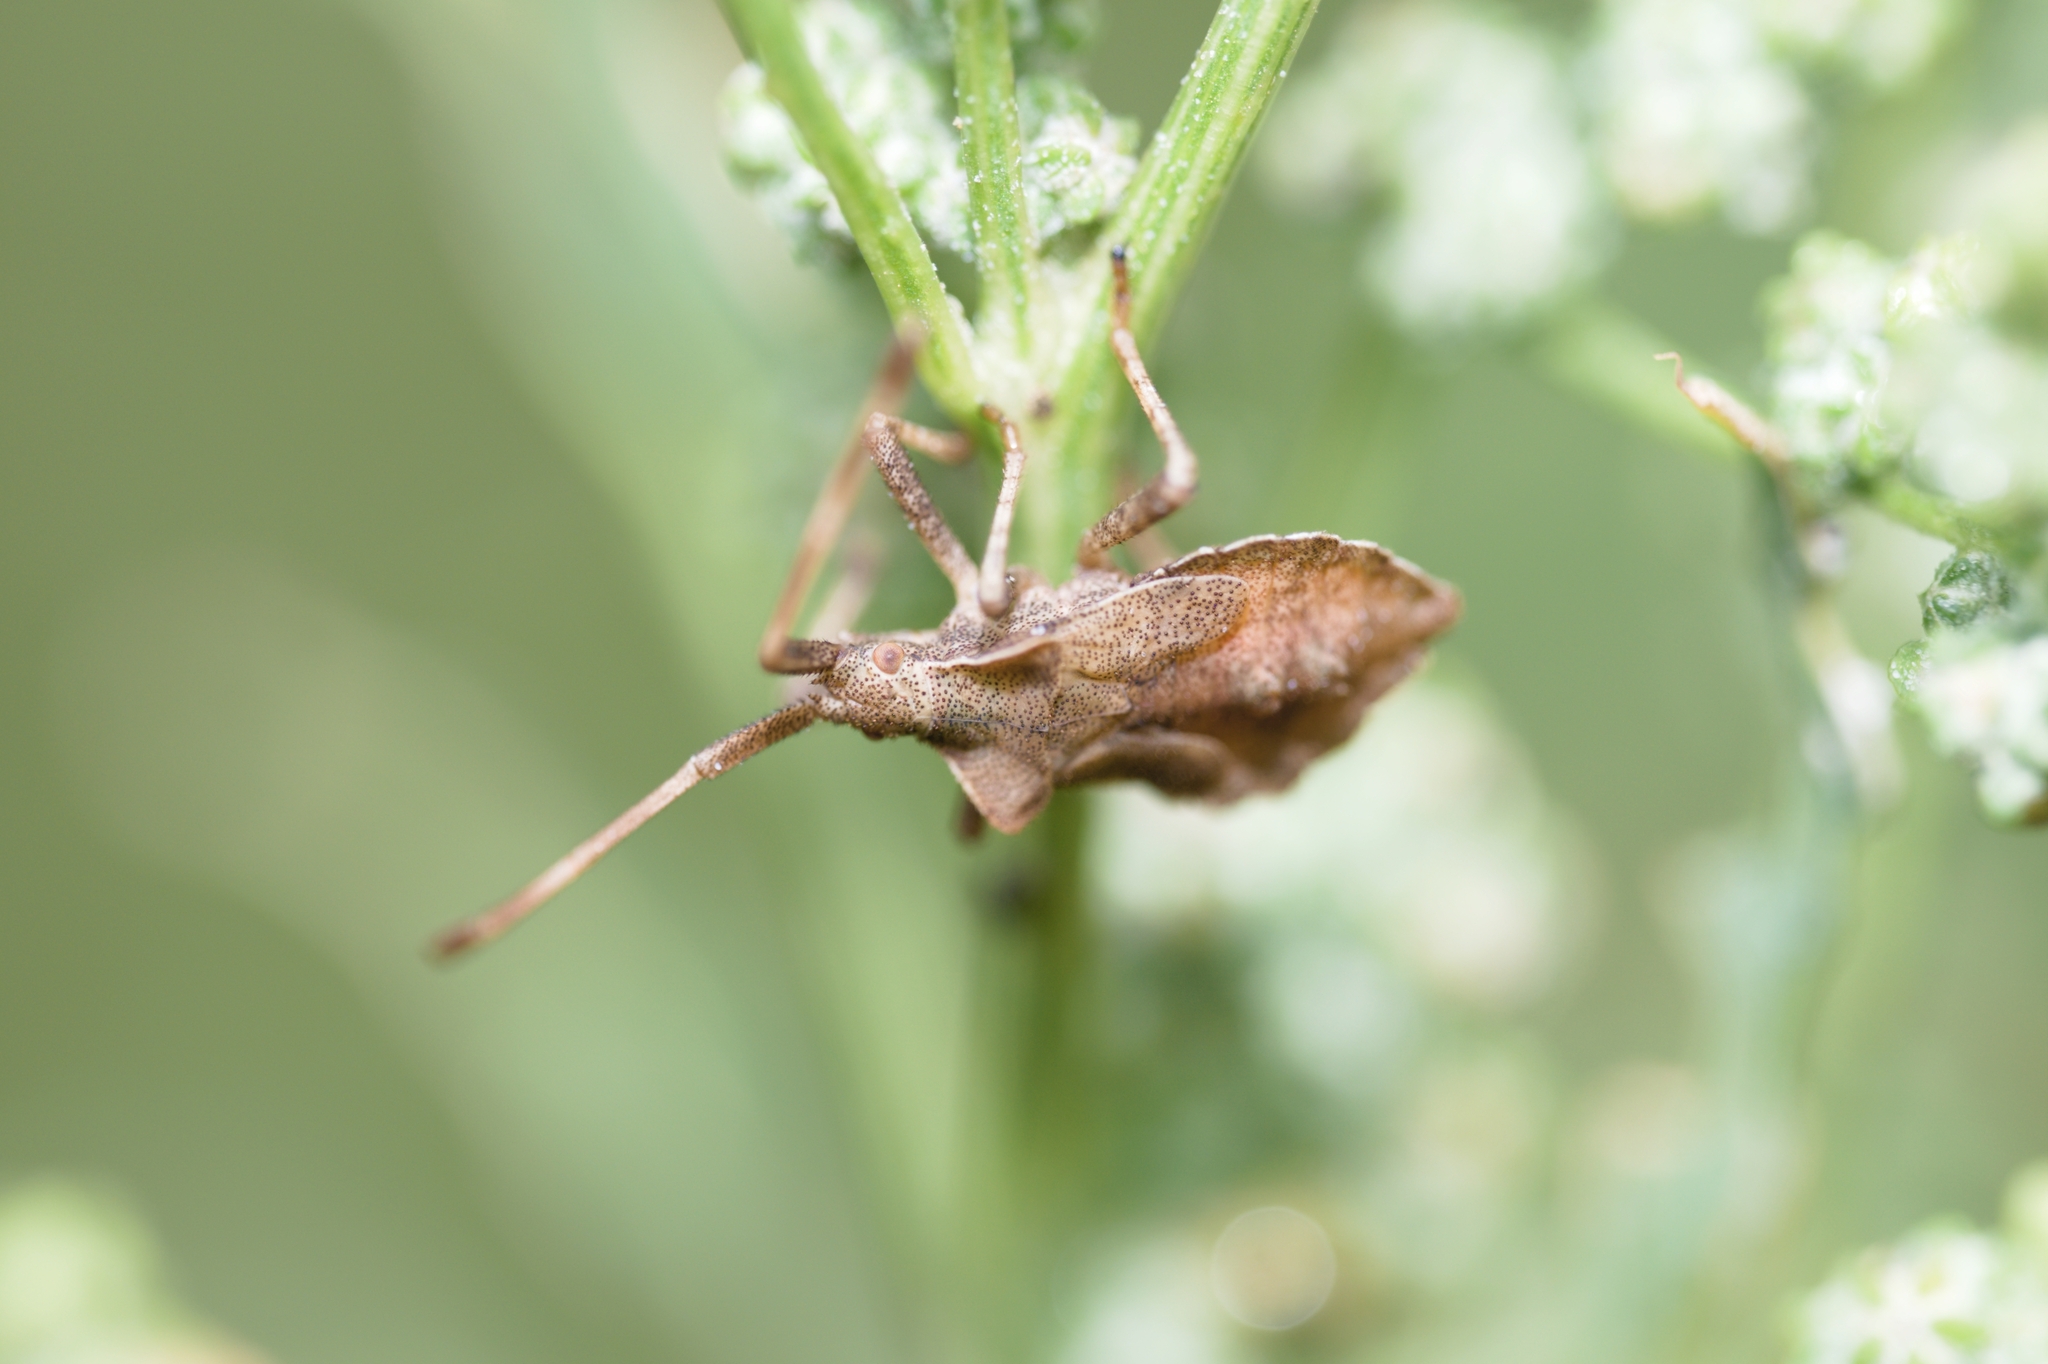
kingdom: Animalia
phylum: Arthropoda
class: Insecta
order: Hemiptera
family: Coreidae
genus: Coreus
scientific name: Coreus marginatus
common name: Dock bug
